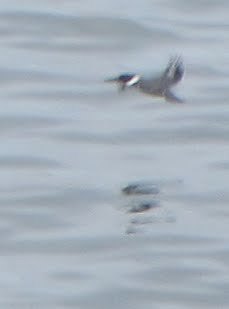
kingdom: Animalia
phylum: Chordata
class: Aves
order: Coraciiformes
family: Alcedinidae
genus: Megaceryle
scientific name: Megaceryle alcyon
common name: Belted kingfisher
